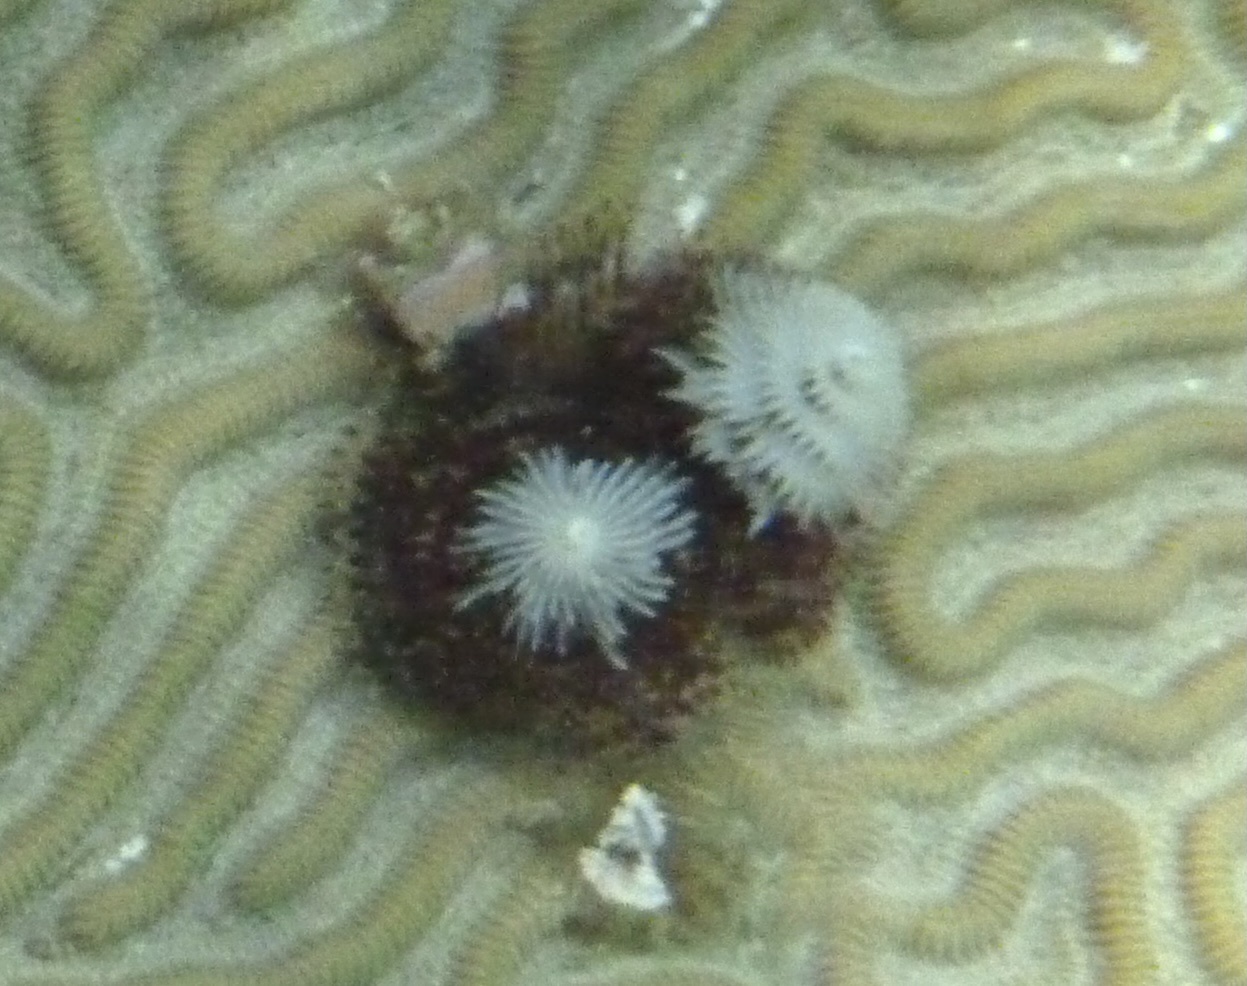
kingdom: Animalia
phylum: Annelida
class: Polychaeta
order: Sabellida
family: Serpulidae
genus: Spirobranchus
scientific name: Spirobranchus giganteus
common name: Christmas tree worm
